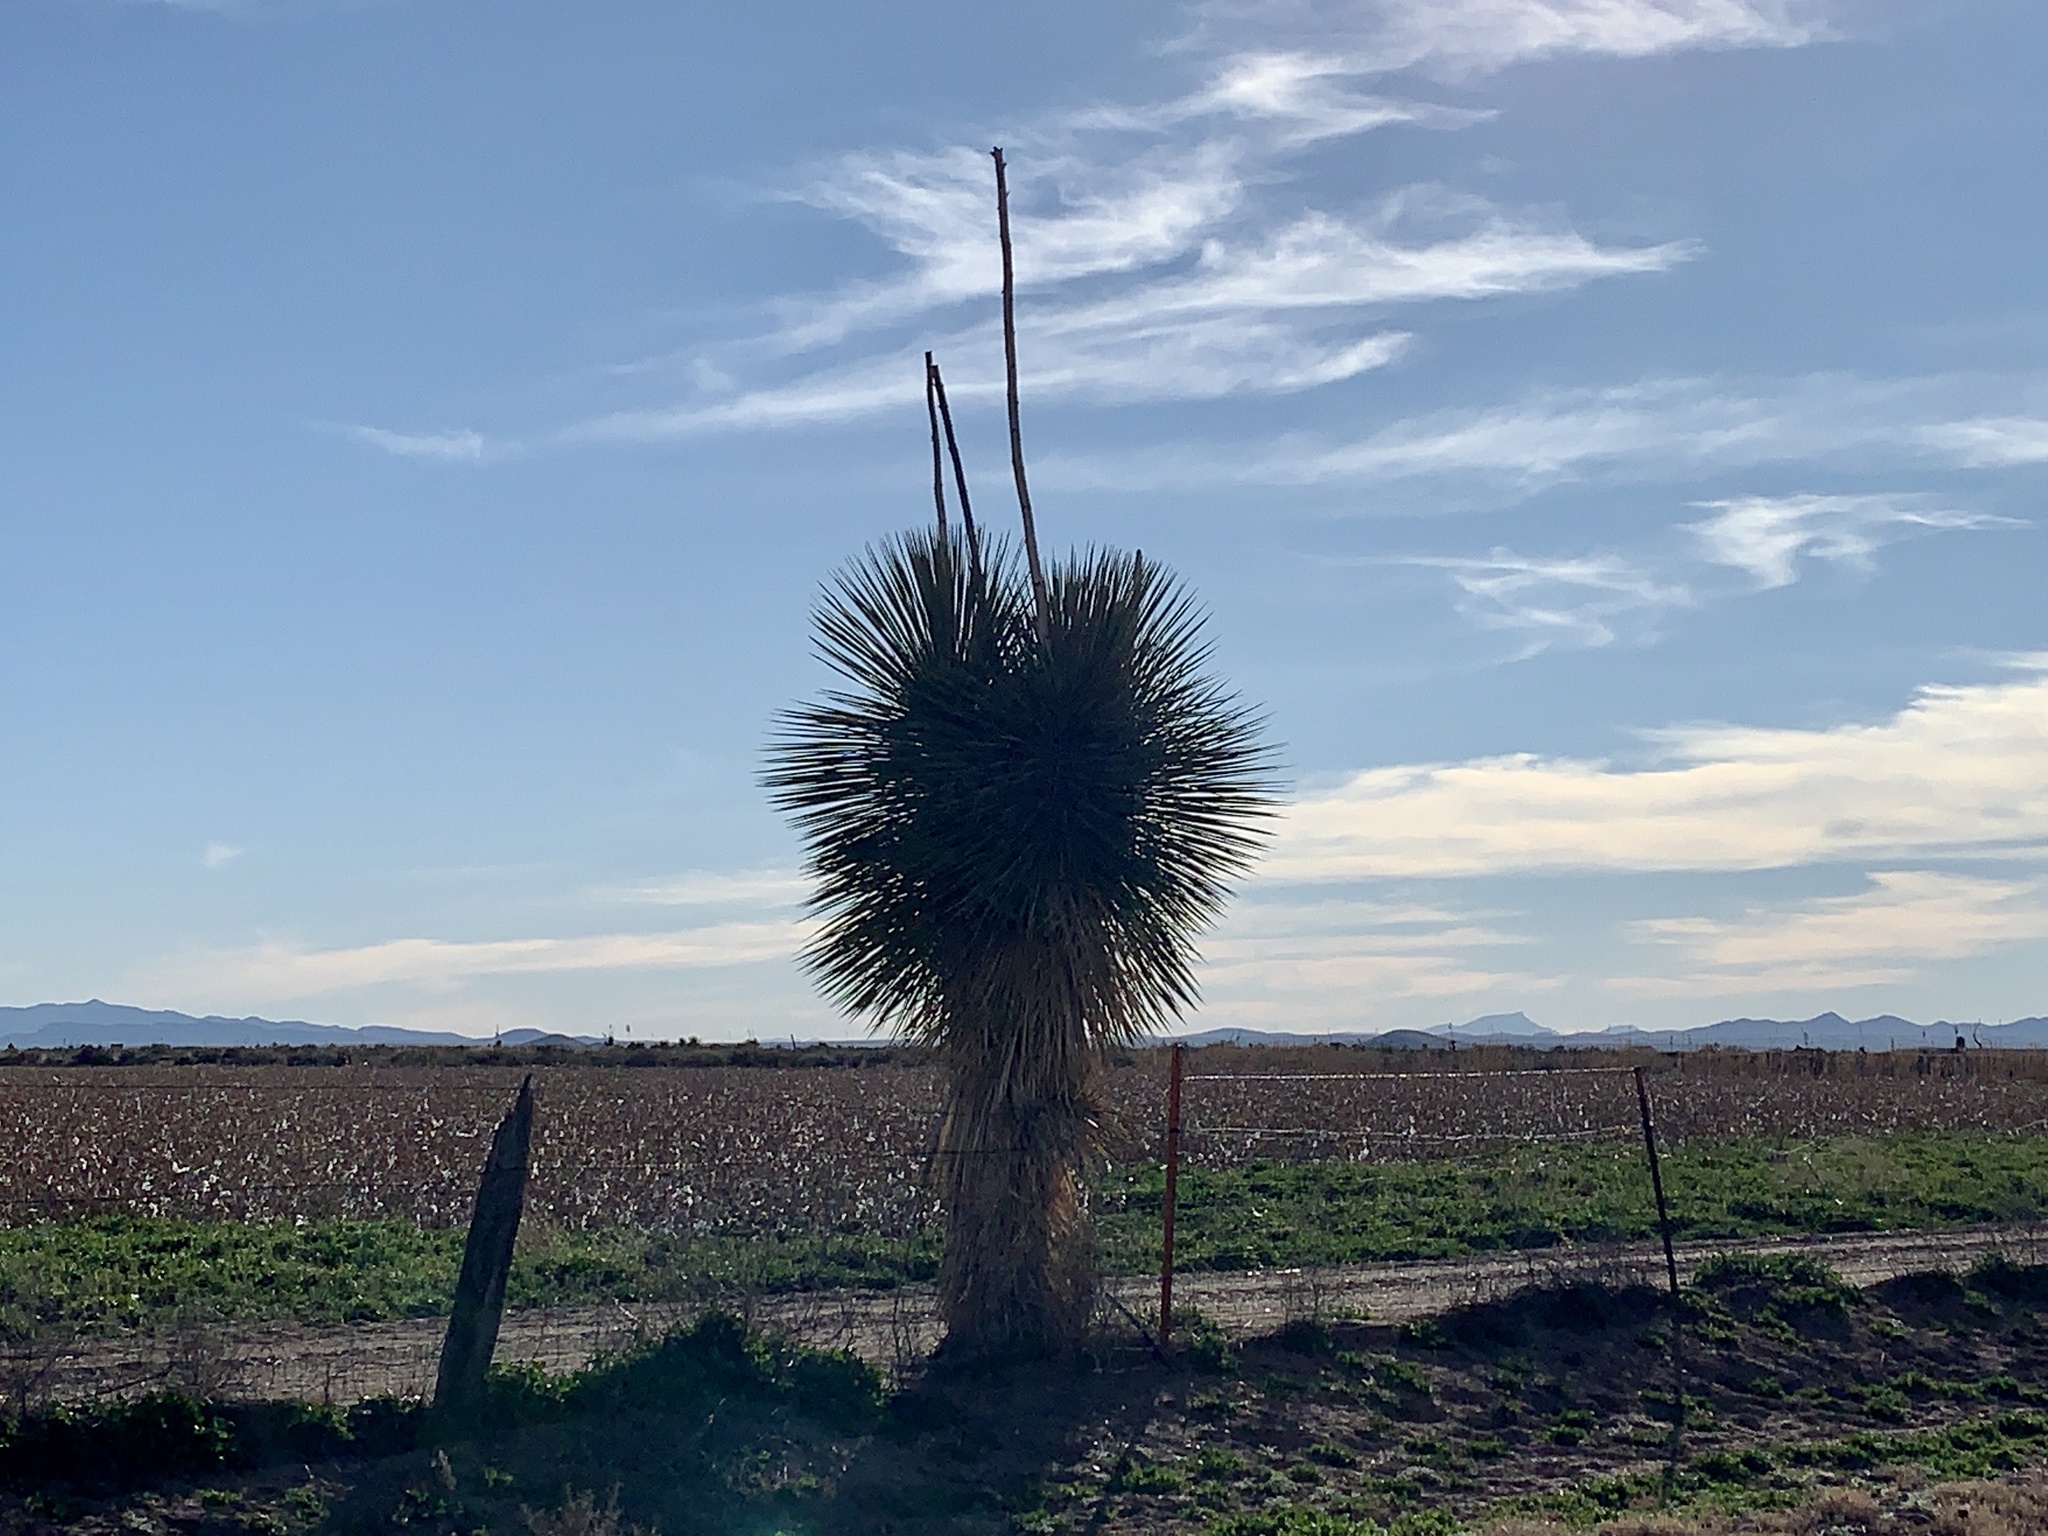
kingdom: Plantae
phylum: Tracheophyta
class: Liliopsida
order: Asparagales
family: Asparagaceae
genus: Yucca
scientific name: Yucca elata
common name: Palmella
